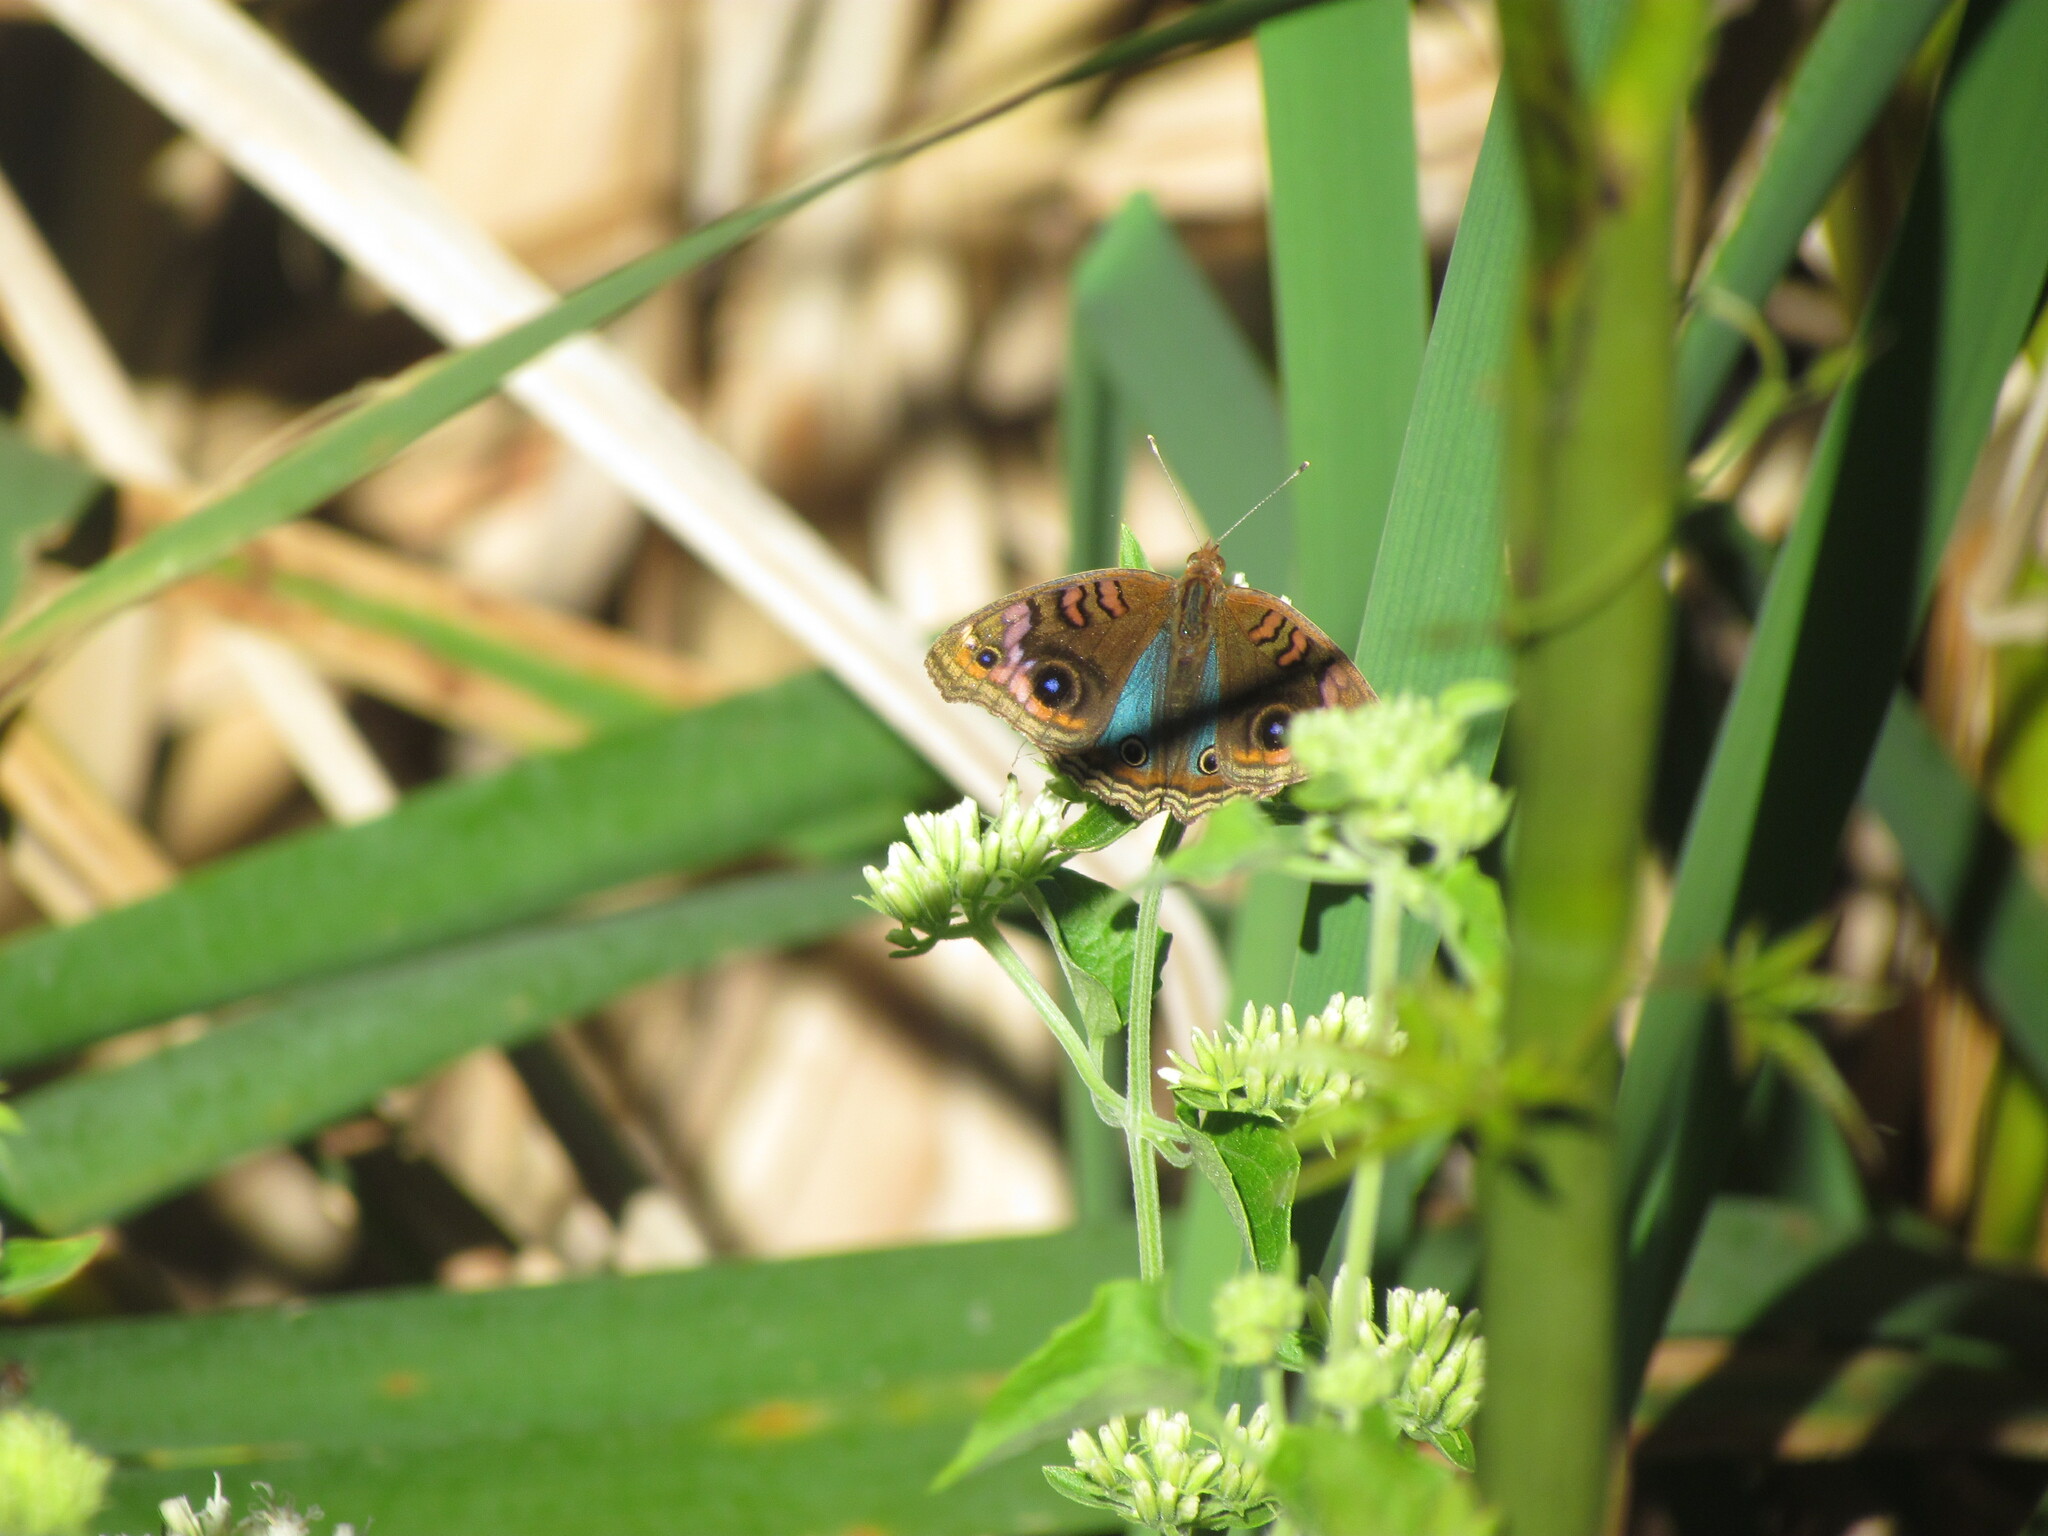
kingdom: Animalia
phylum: Arthropoda
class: Insecta
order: Lepidoptera
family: Nymphalidae
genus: Junonia
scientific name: Junonia lavinia
